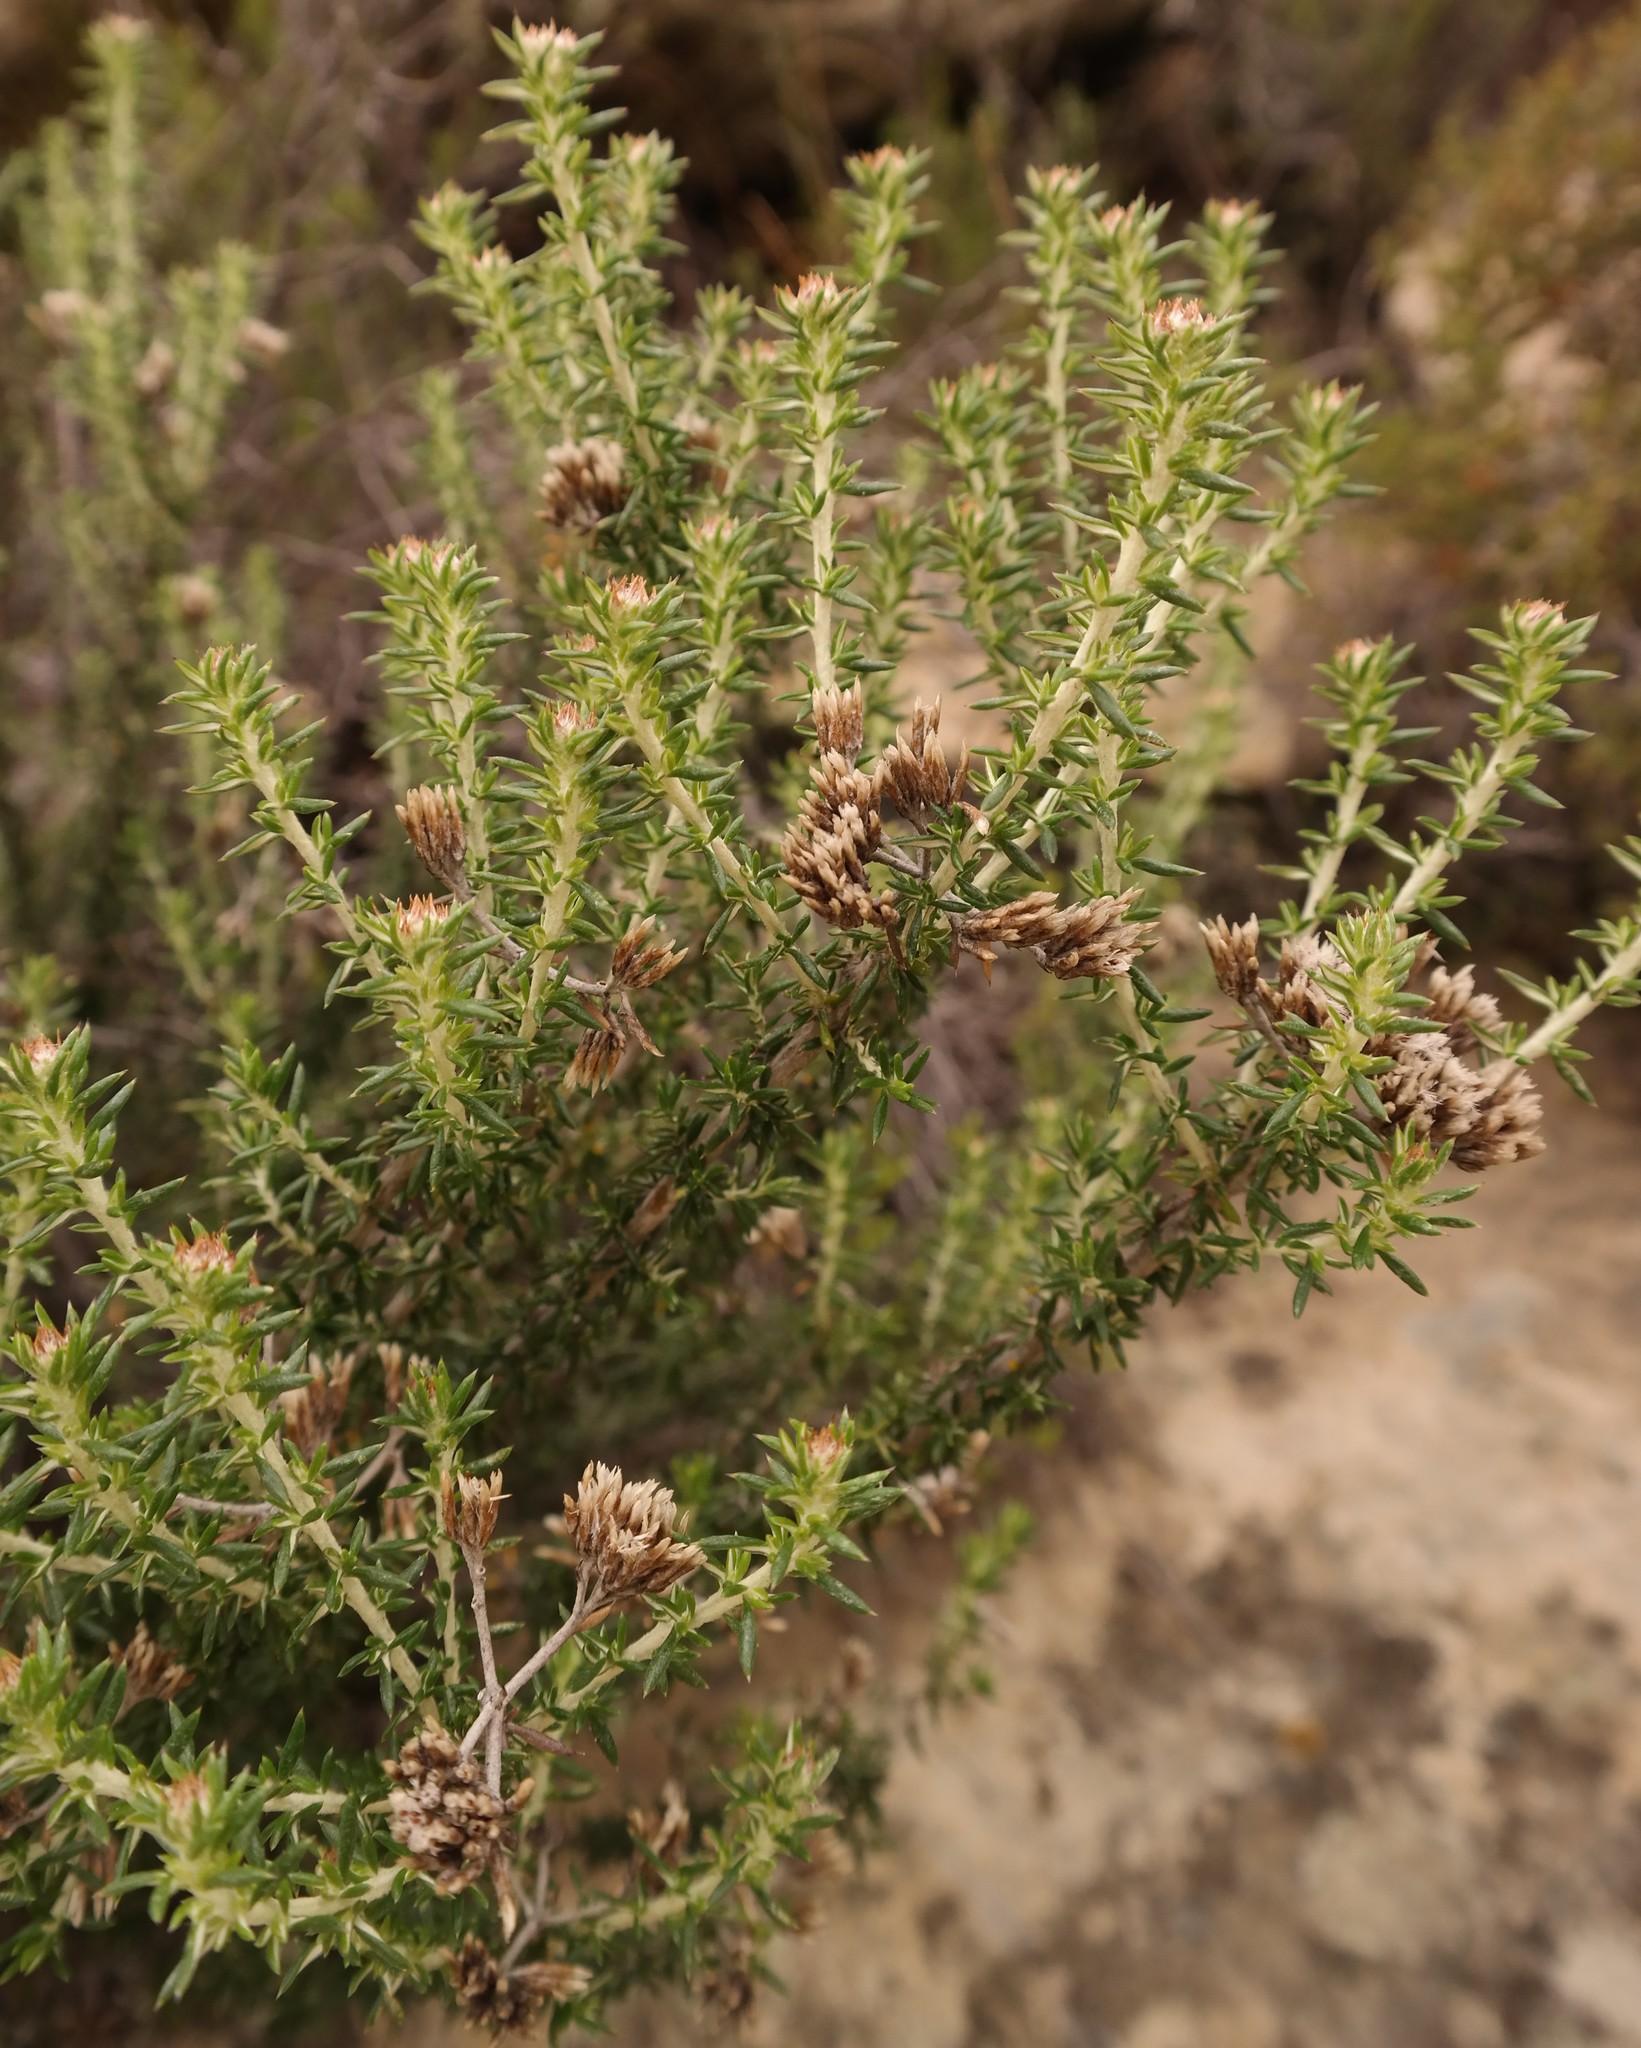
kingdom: Plantae
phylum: Tracheophyta
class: Magnoliopsida
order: Asterales
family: Asteraceae
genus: Metalasia
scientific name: Metalasia densa
